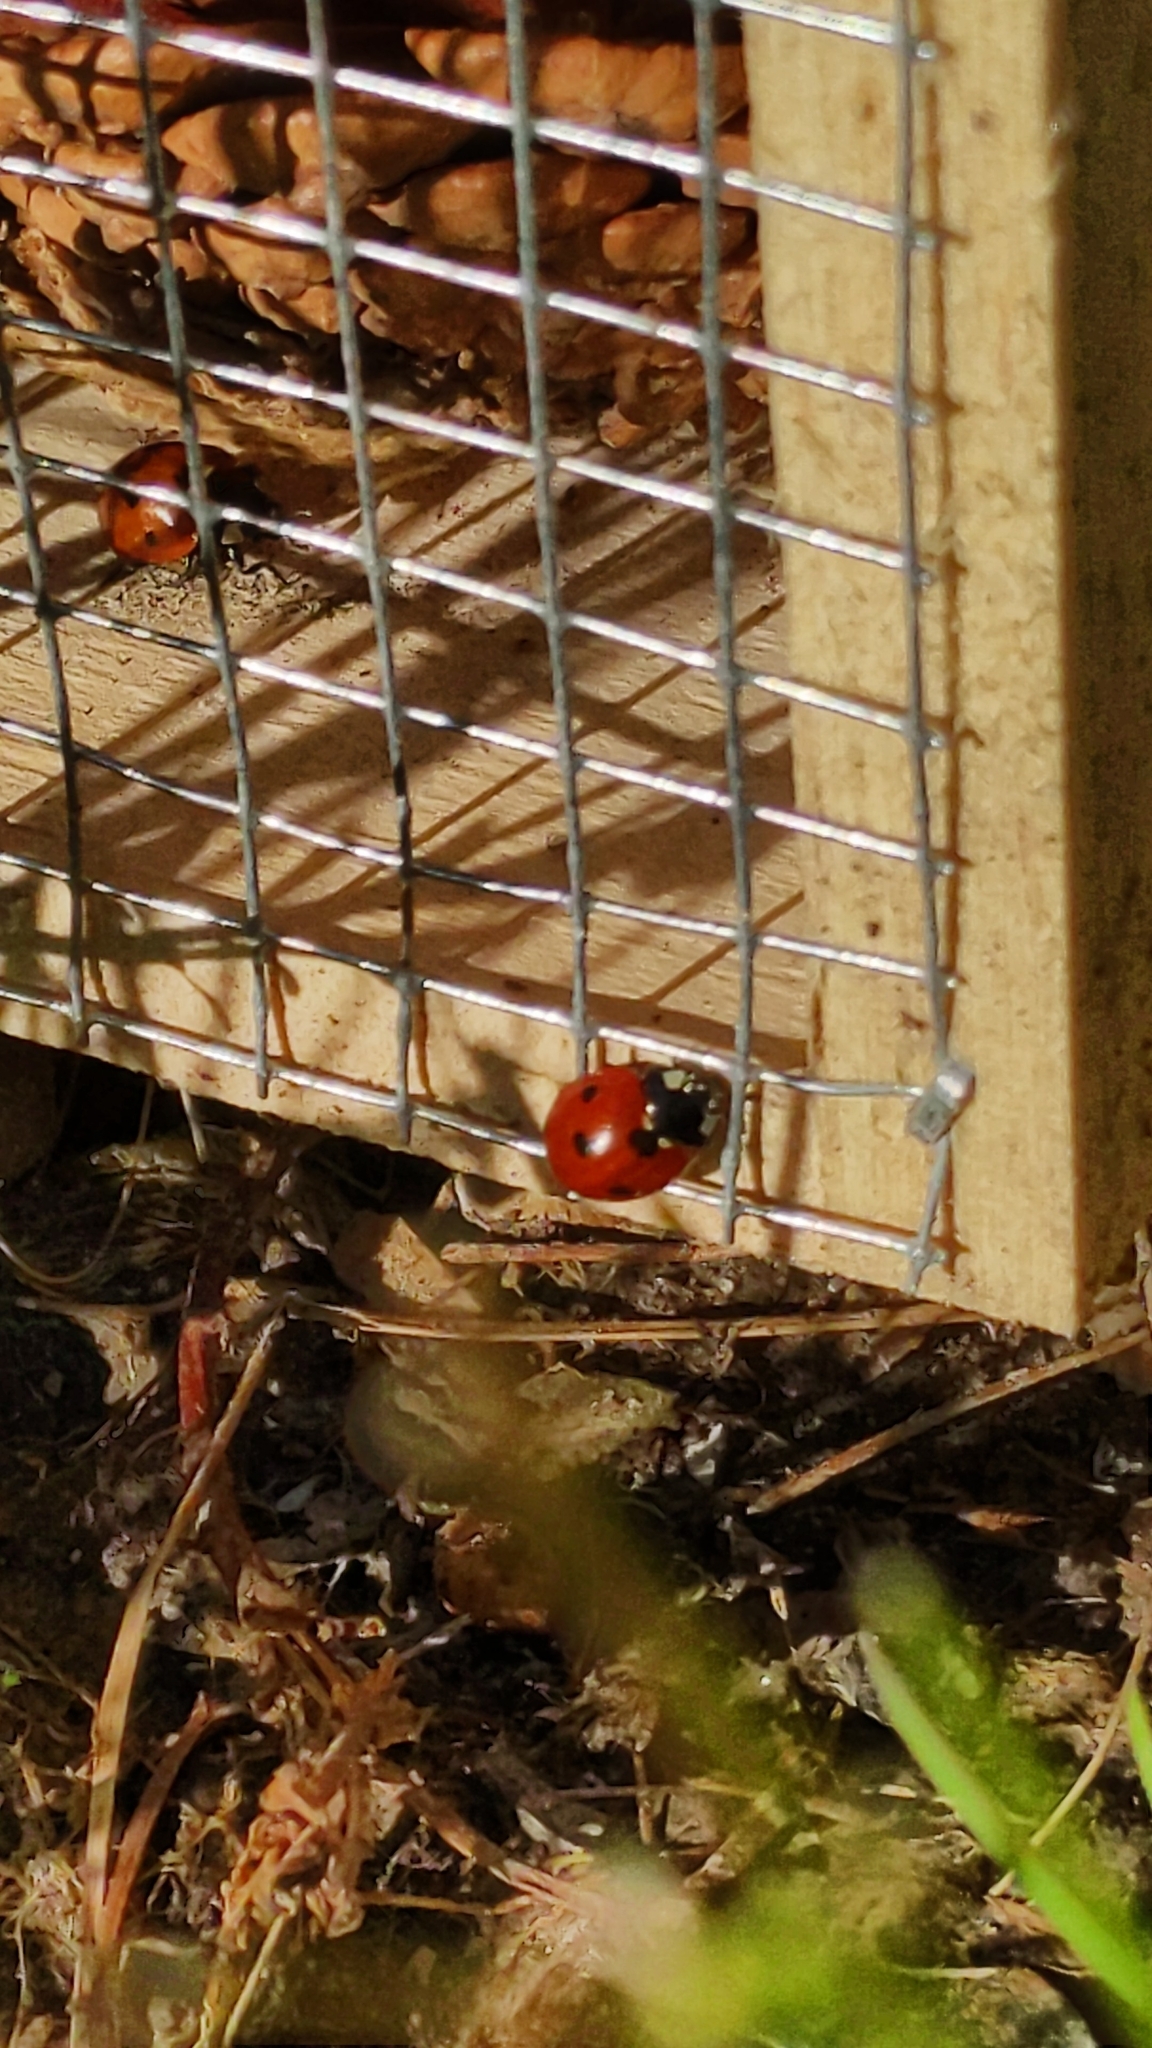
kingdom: Animalia
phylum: Arthropoda
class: Insecta
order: Coleoptera
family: Coccinellidae
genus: Coccinella
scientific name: Coccinella septempunctata
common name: Sevenspotted lady beetle
